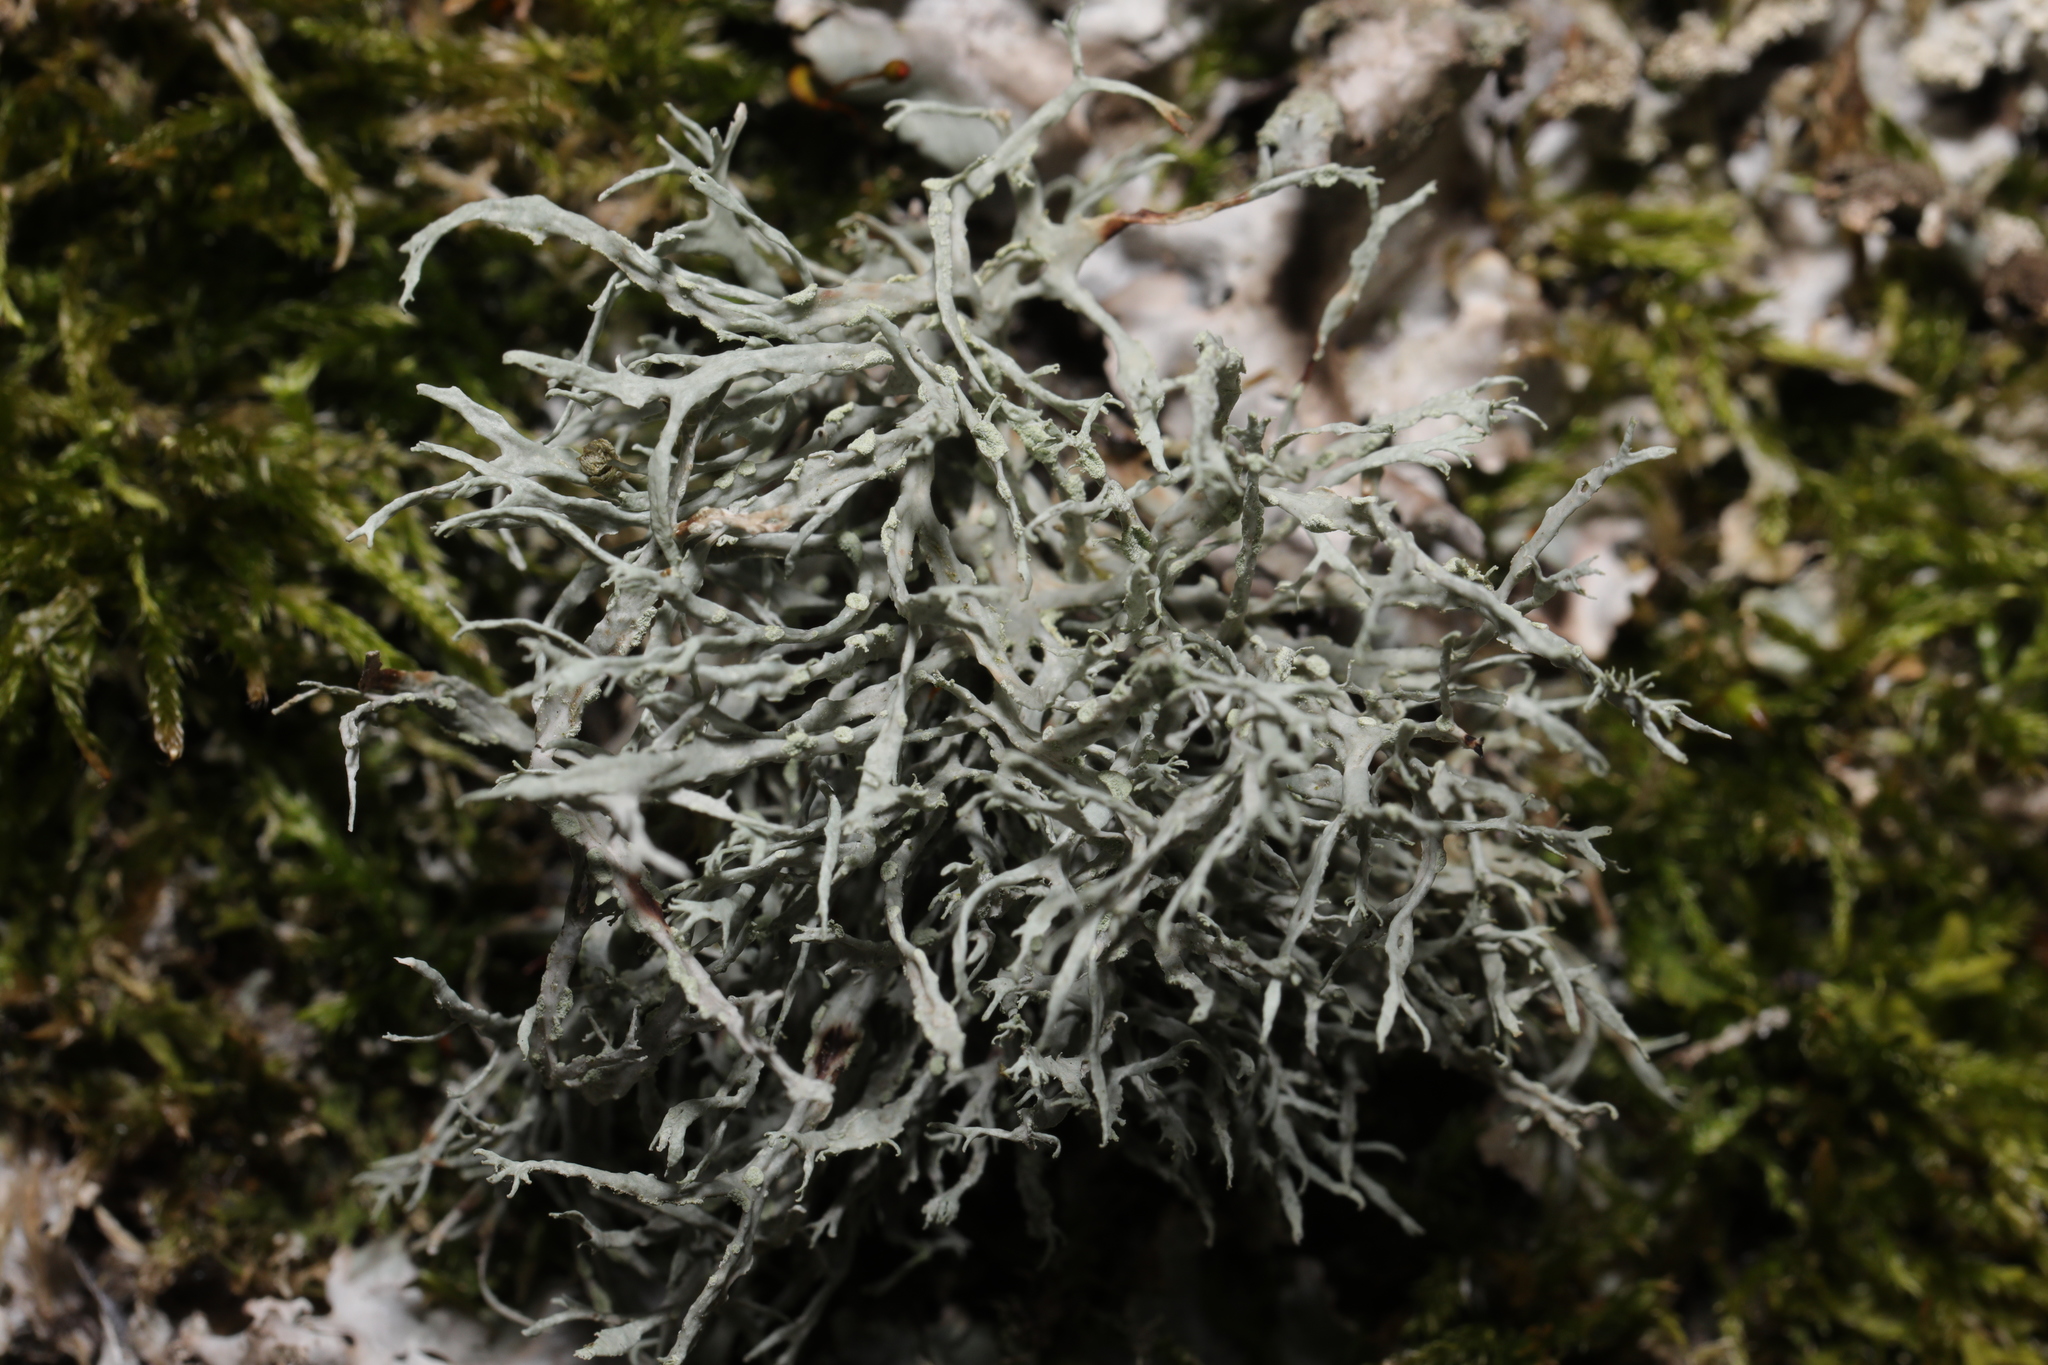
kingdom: Fungi
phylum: Ascomycota
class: Lecanoromycetes
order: Lecanorales
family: Ramalinaceae
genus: Ramalina
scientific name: Ramalina farinacea
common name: Farinose cartilage lichen
